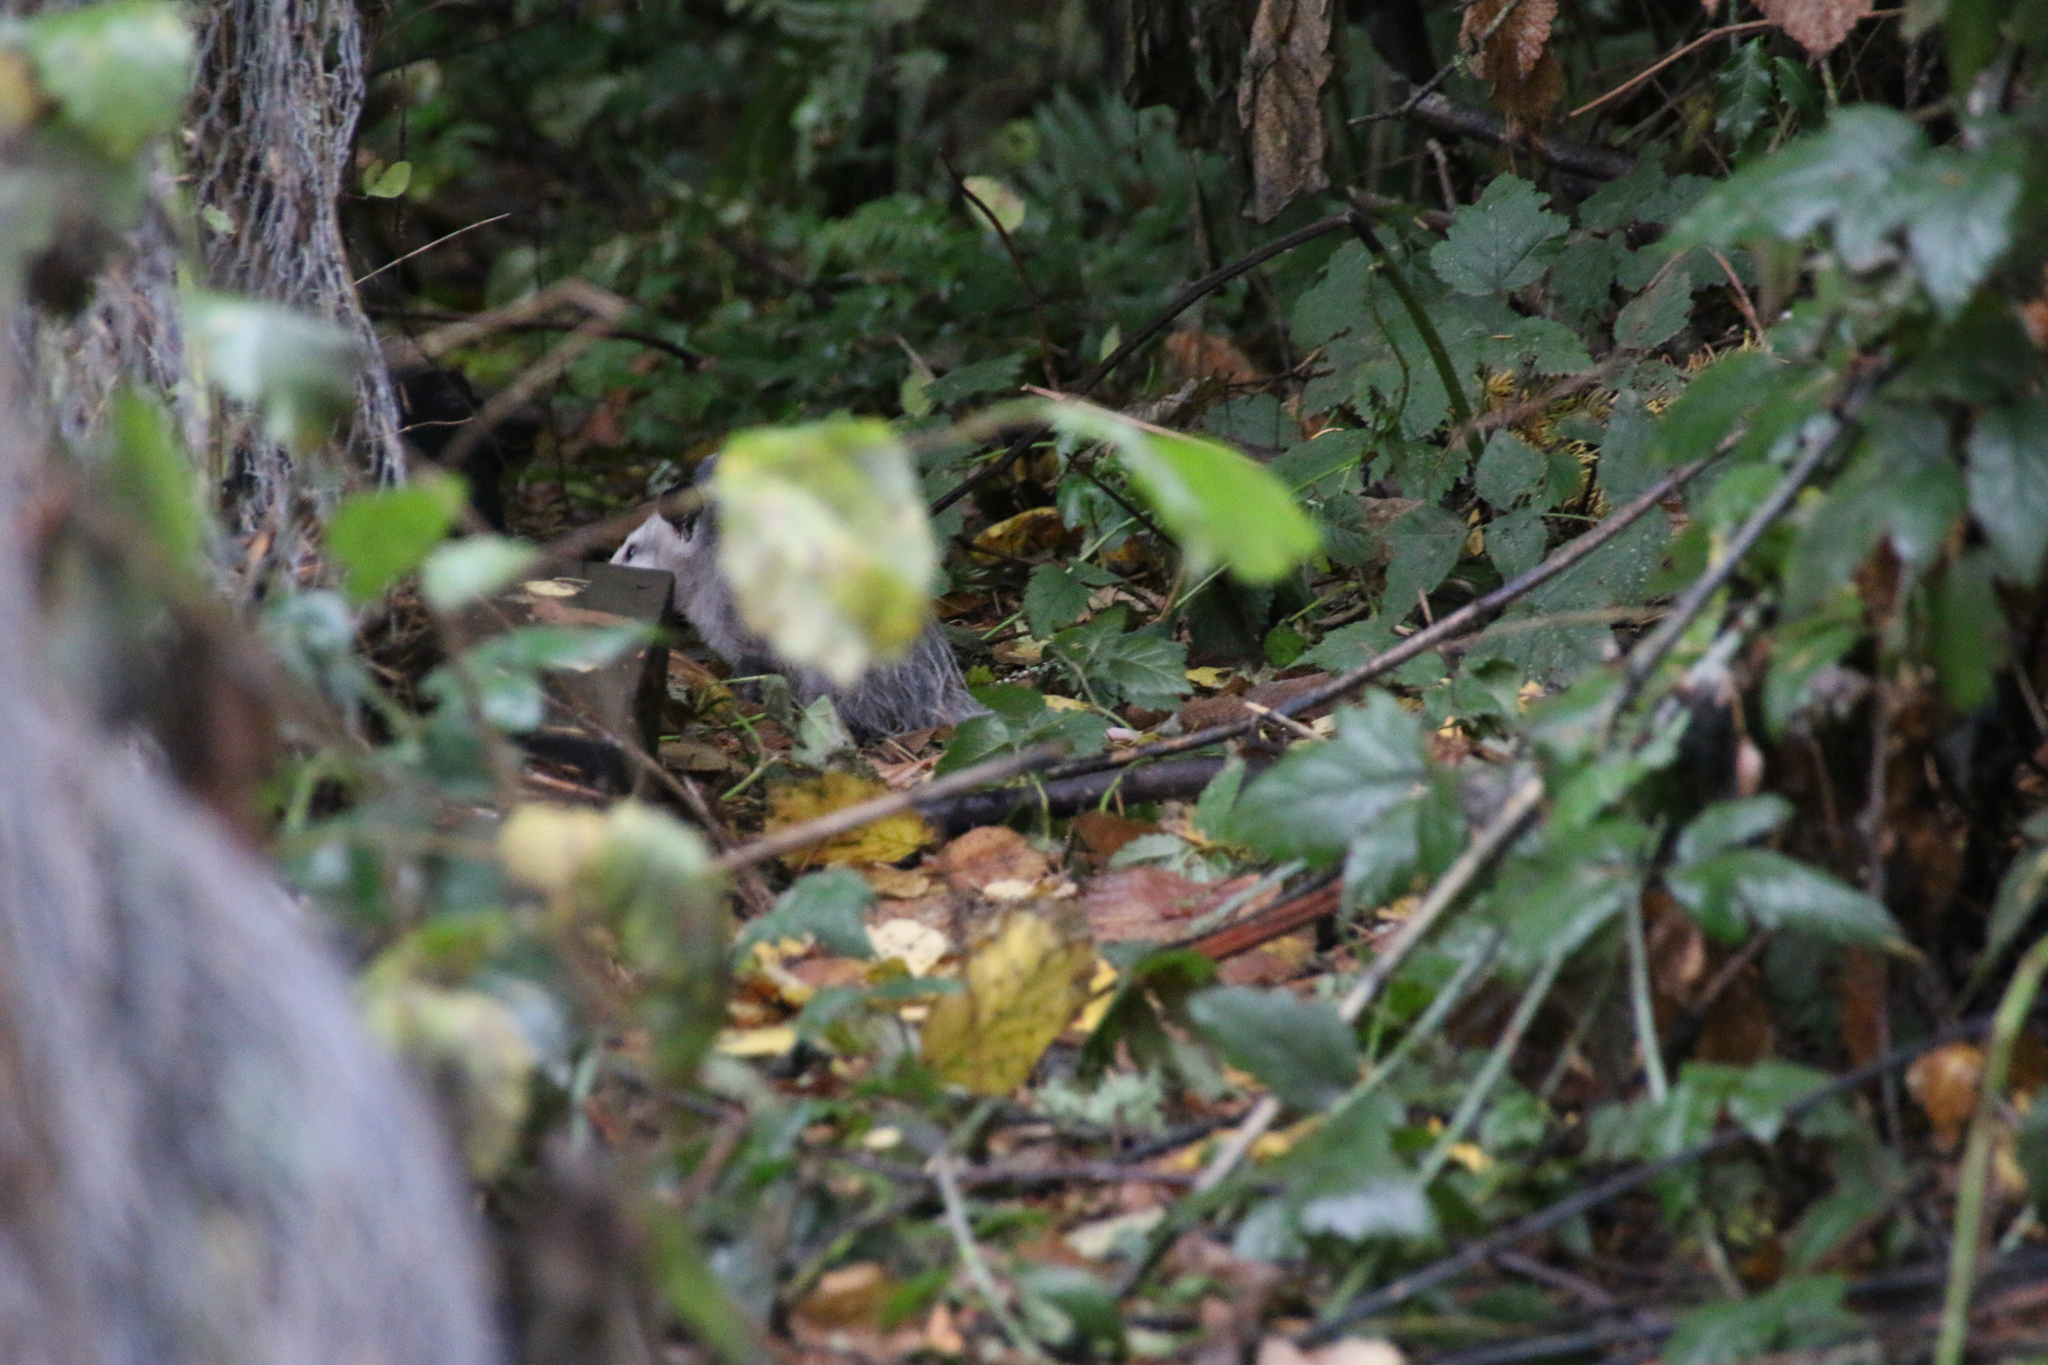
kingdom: Animalia
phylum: Chordata
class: Mammalia
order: Didelphimorphia
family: Didelphidae
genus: Didelphis
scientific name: Didelphis virginiana
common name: Virginia opossum
